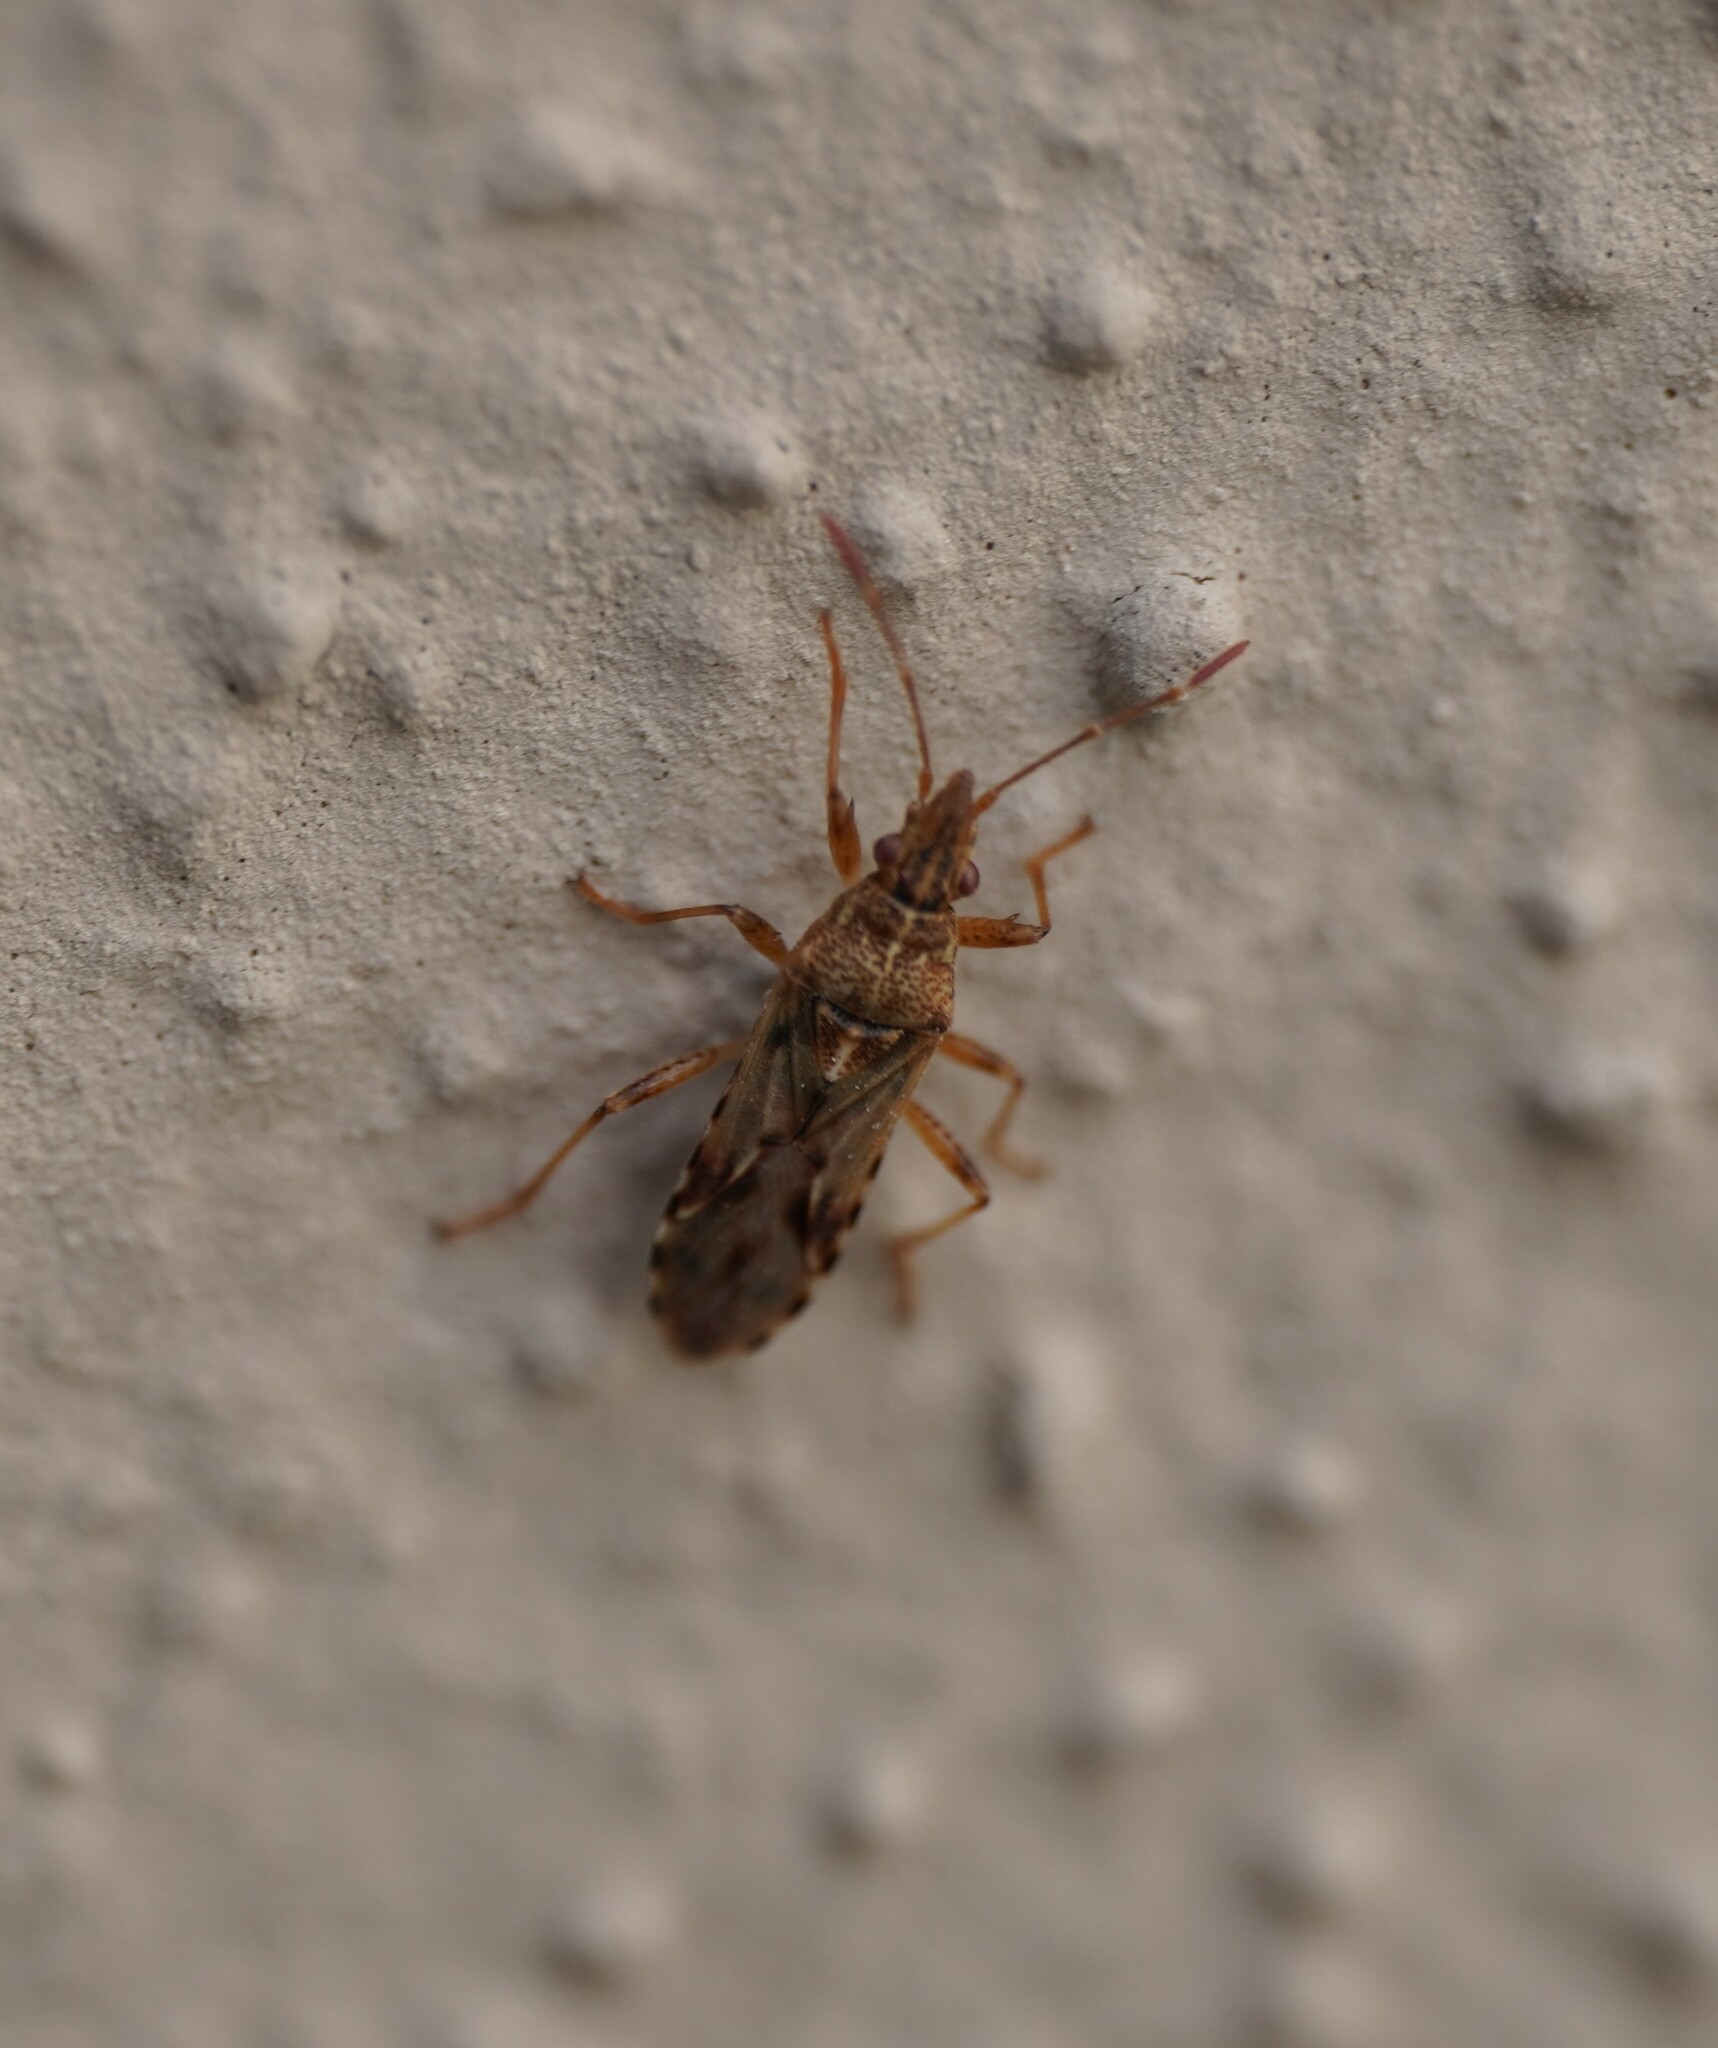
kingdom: Animalia
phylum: Arthropoda
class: Insecta
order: Hemiptera
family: Lygaeidae
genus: Belonochilus
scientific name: Belonochilus numenius
